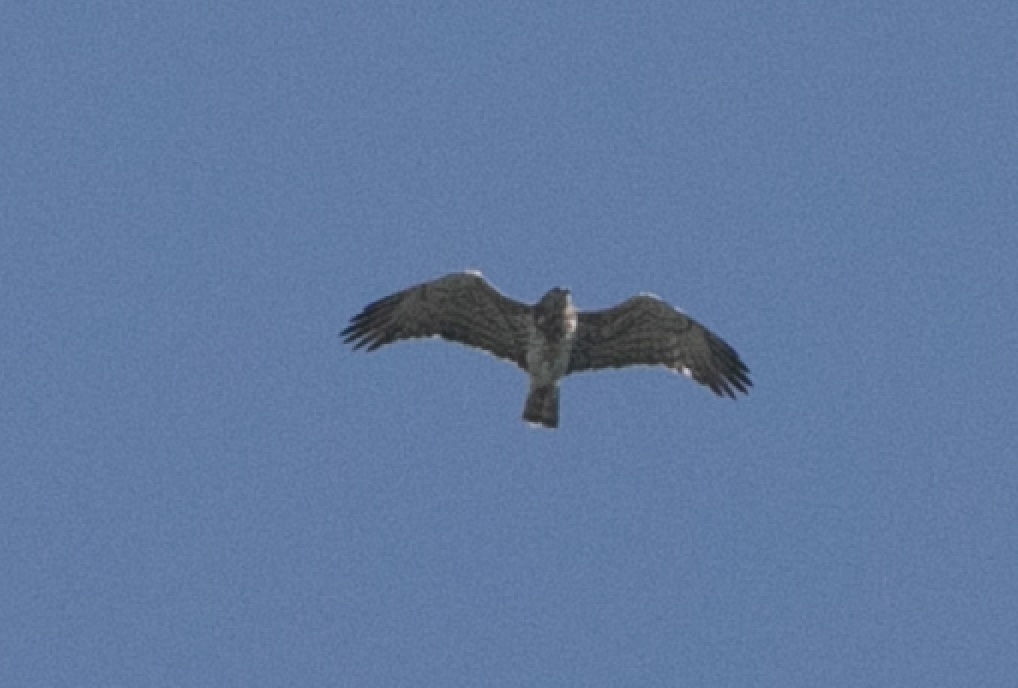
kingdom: Animalia
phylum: Chordata
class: Aves
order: Accipitriformes
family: Accipitridae
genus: Circaetus
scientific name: Circaetus gallicus
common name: Short-toed snake eagle
